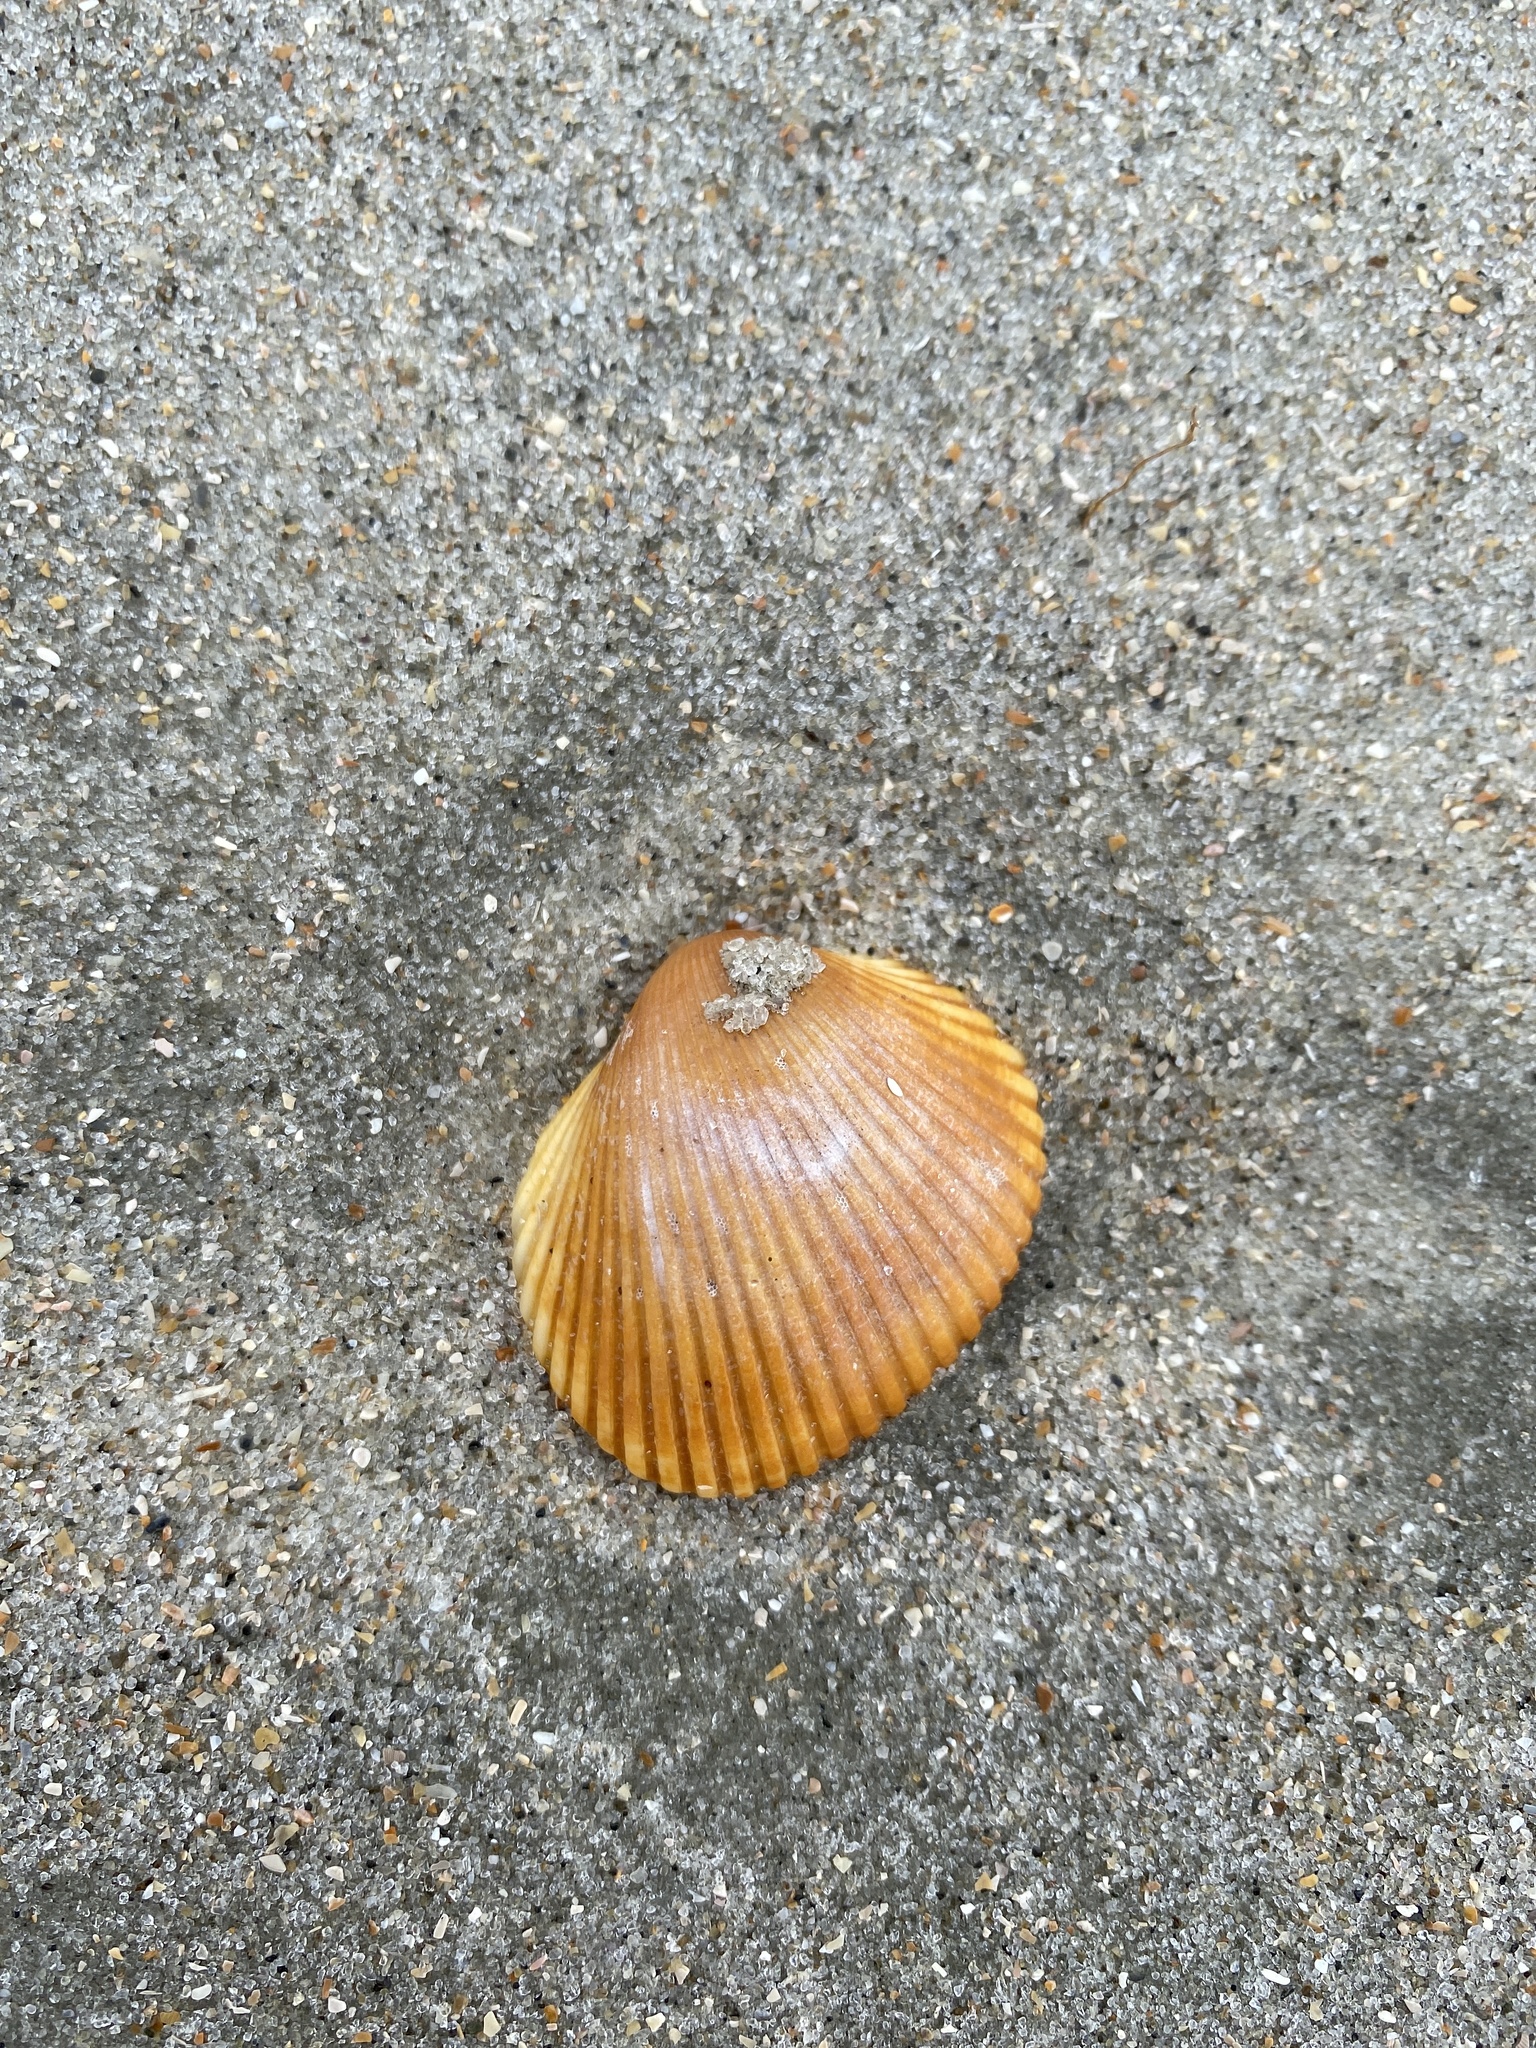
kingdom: Animalia
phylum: Mollusca
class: Bivalvia
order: Arcida
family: Arcidae
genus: Lunarca
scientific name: Lunarca ovalis
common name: Blood ark
